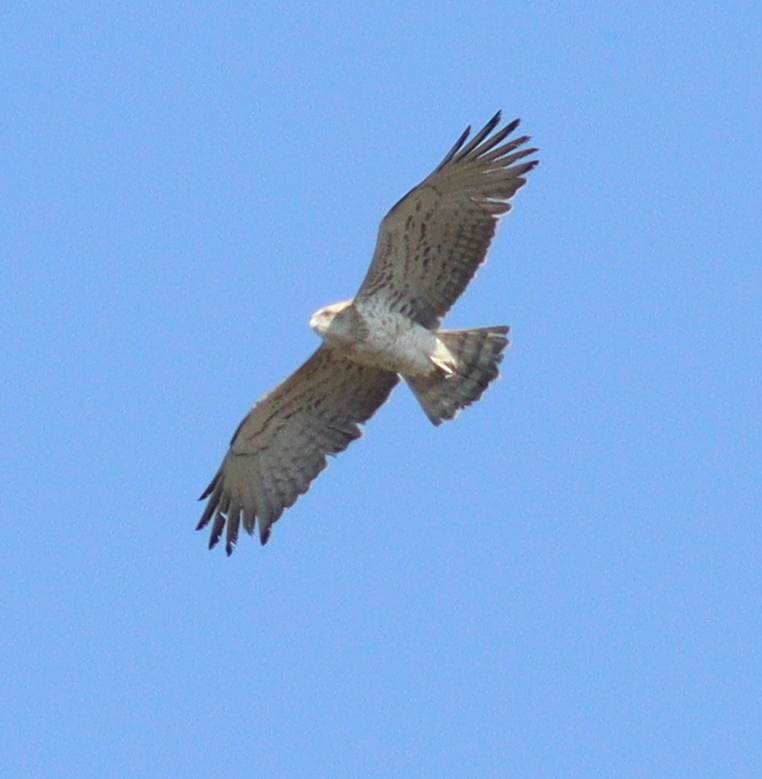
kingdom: Animalia
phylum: Chordata
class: Aves
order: Accipitriformes
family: Accipitridae
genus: Circaetus
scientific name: Circaetus gallicus
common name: Short-toed snake eagle
